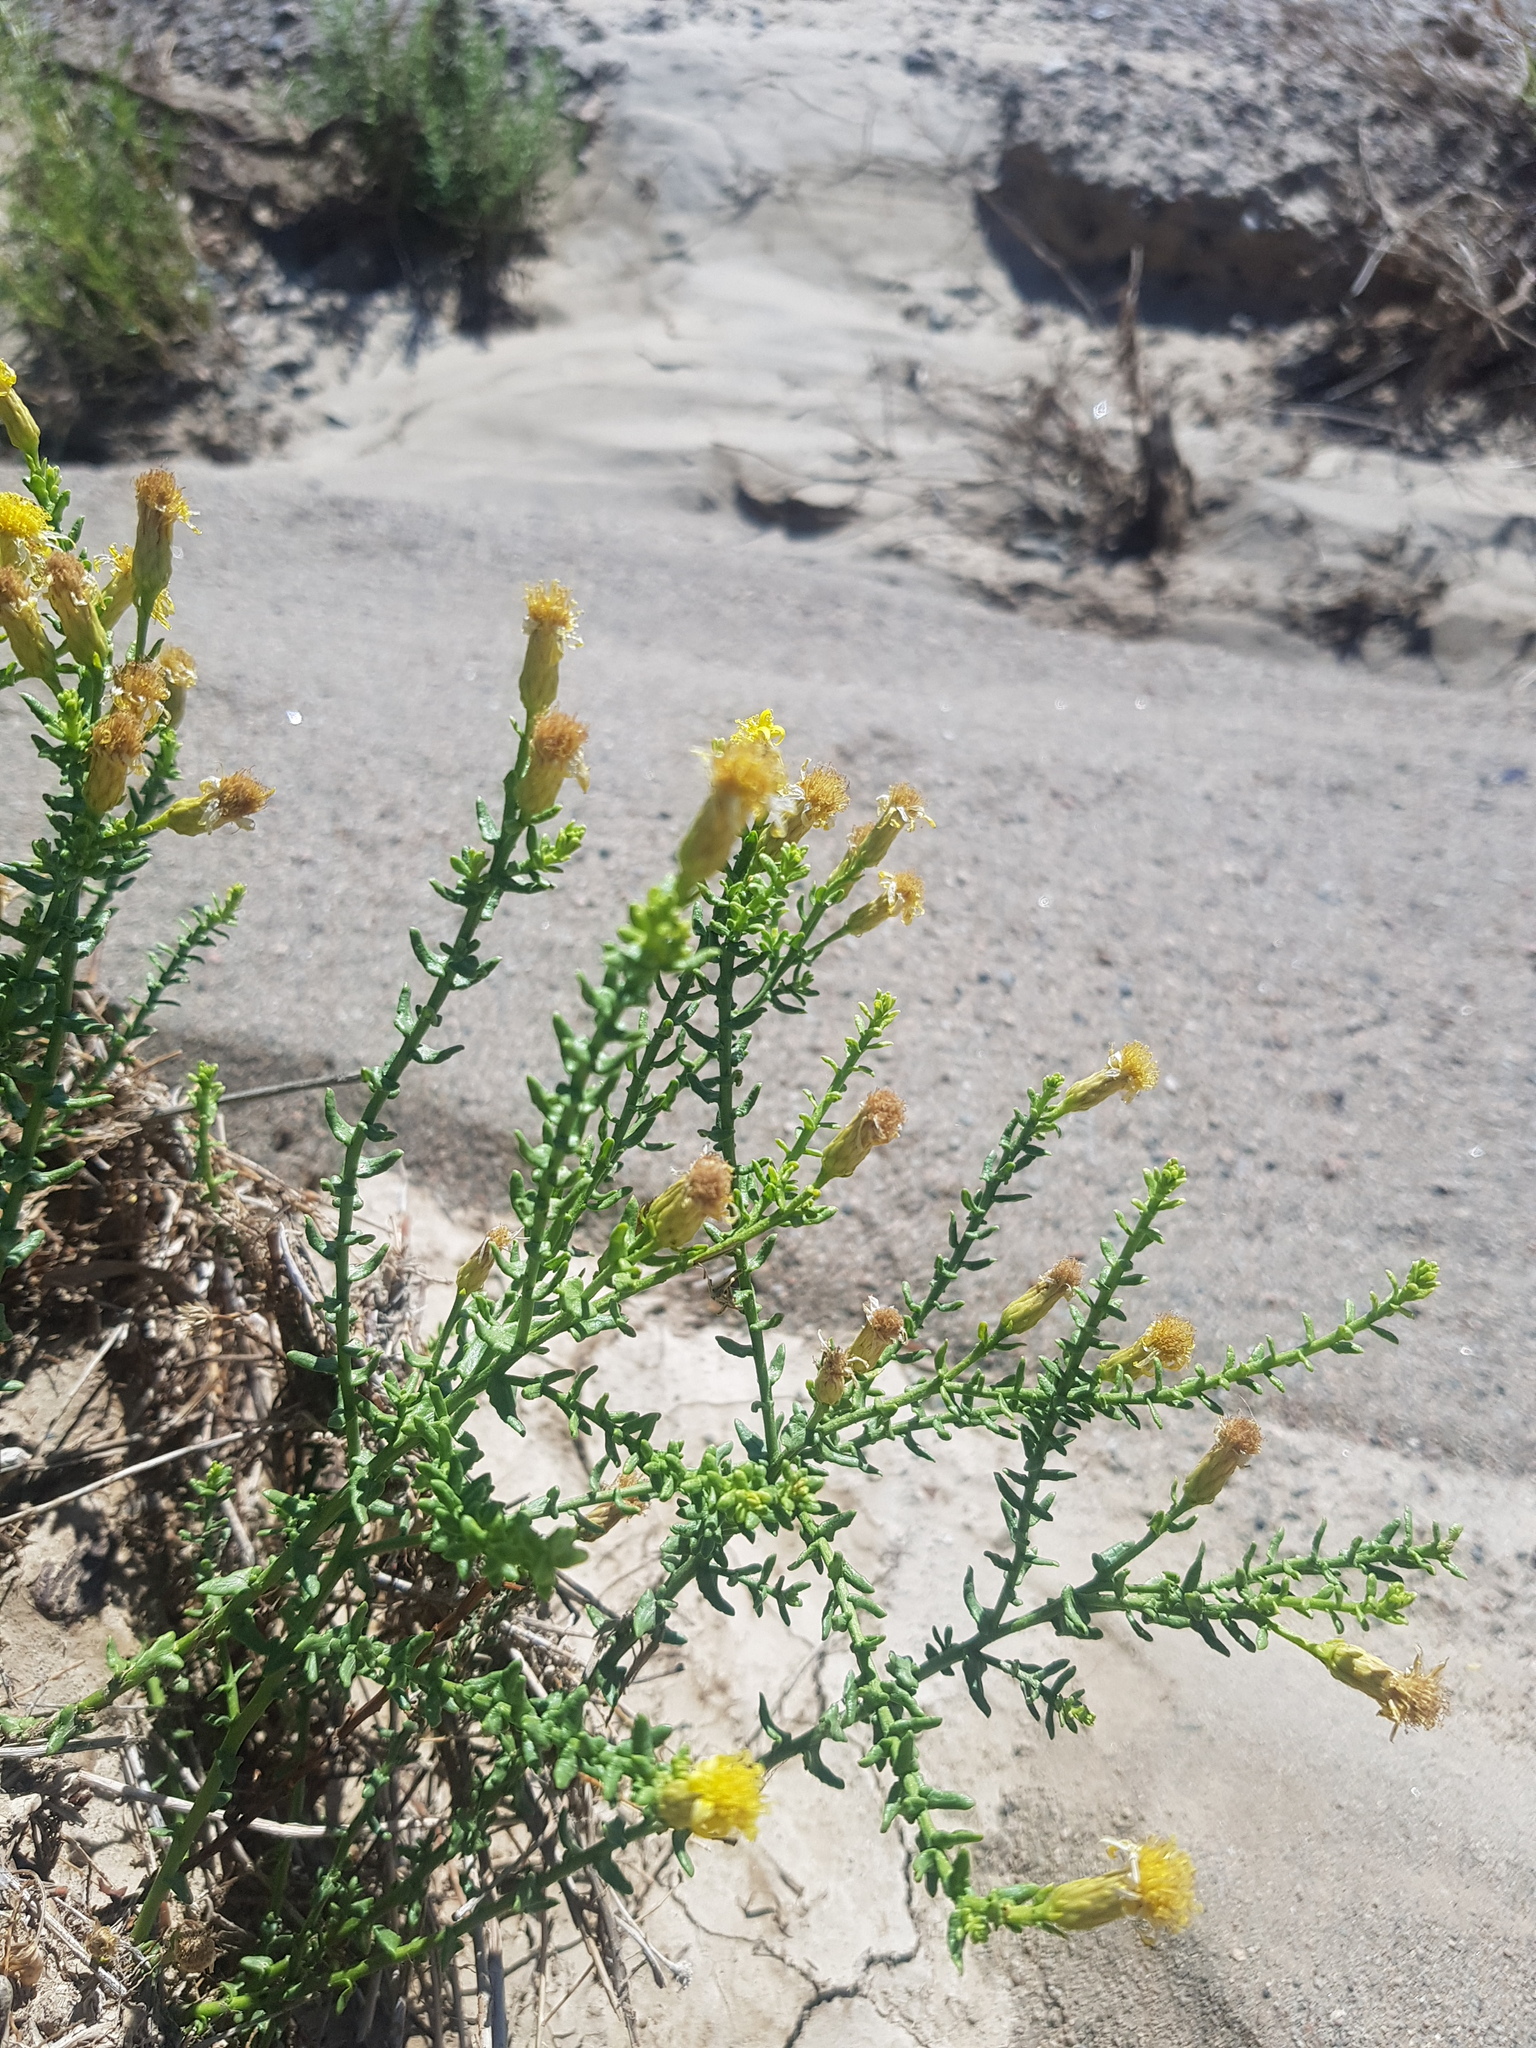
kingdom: Plantae
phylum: Tracheophyta
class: Magnoliopsida
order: Asterales
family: Asteraceae
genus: Inula
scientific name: Inula salsoloides
